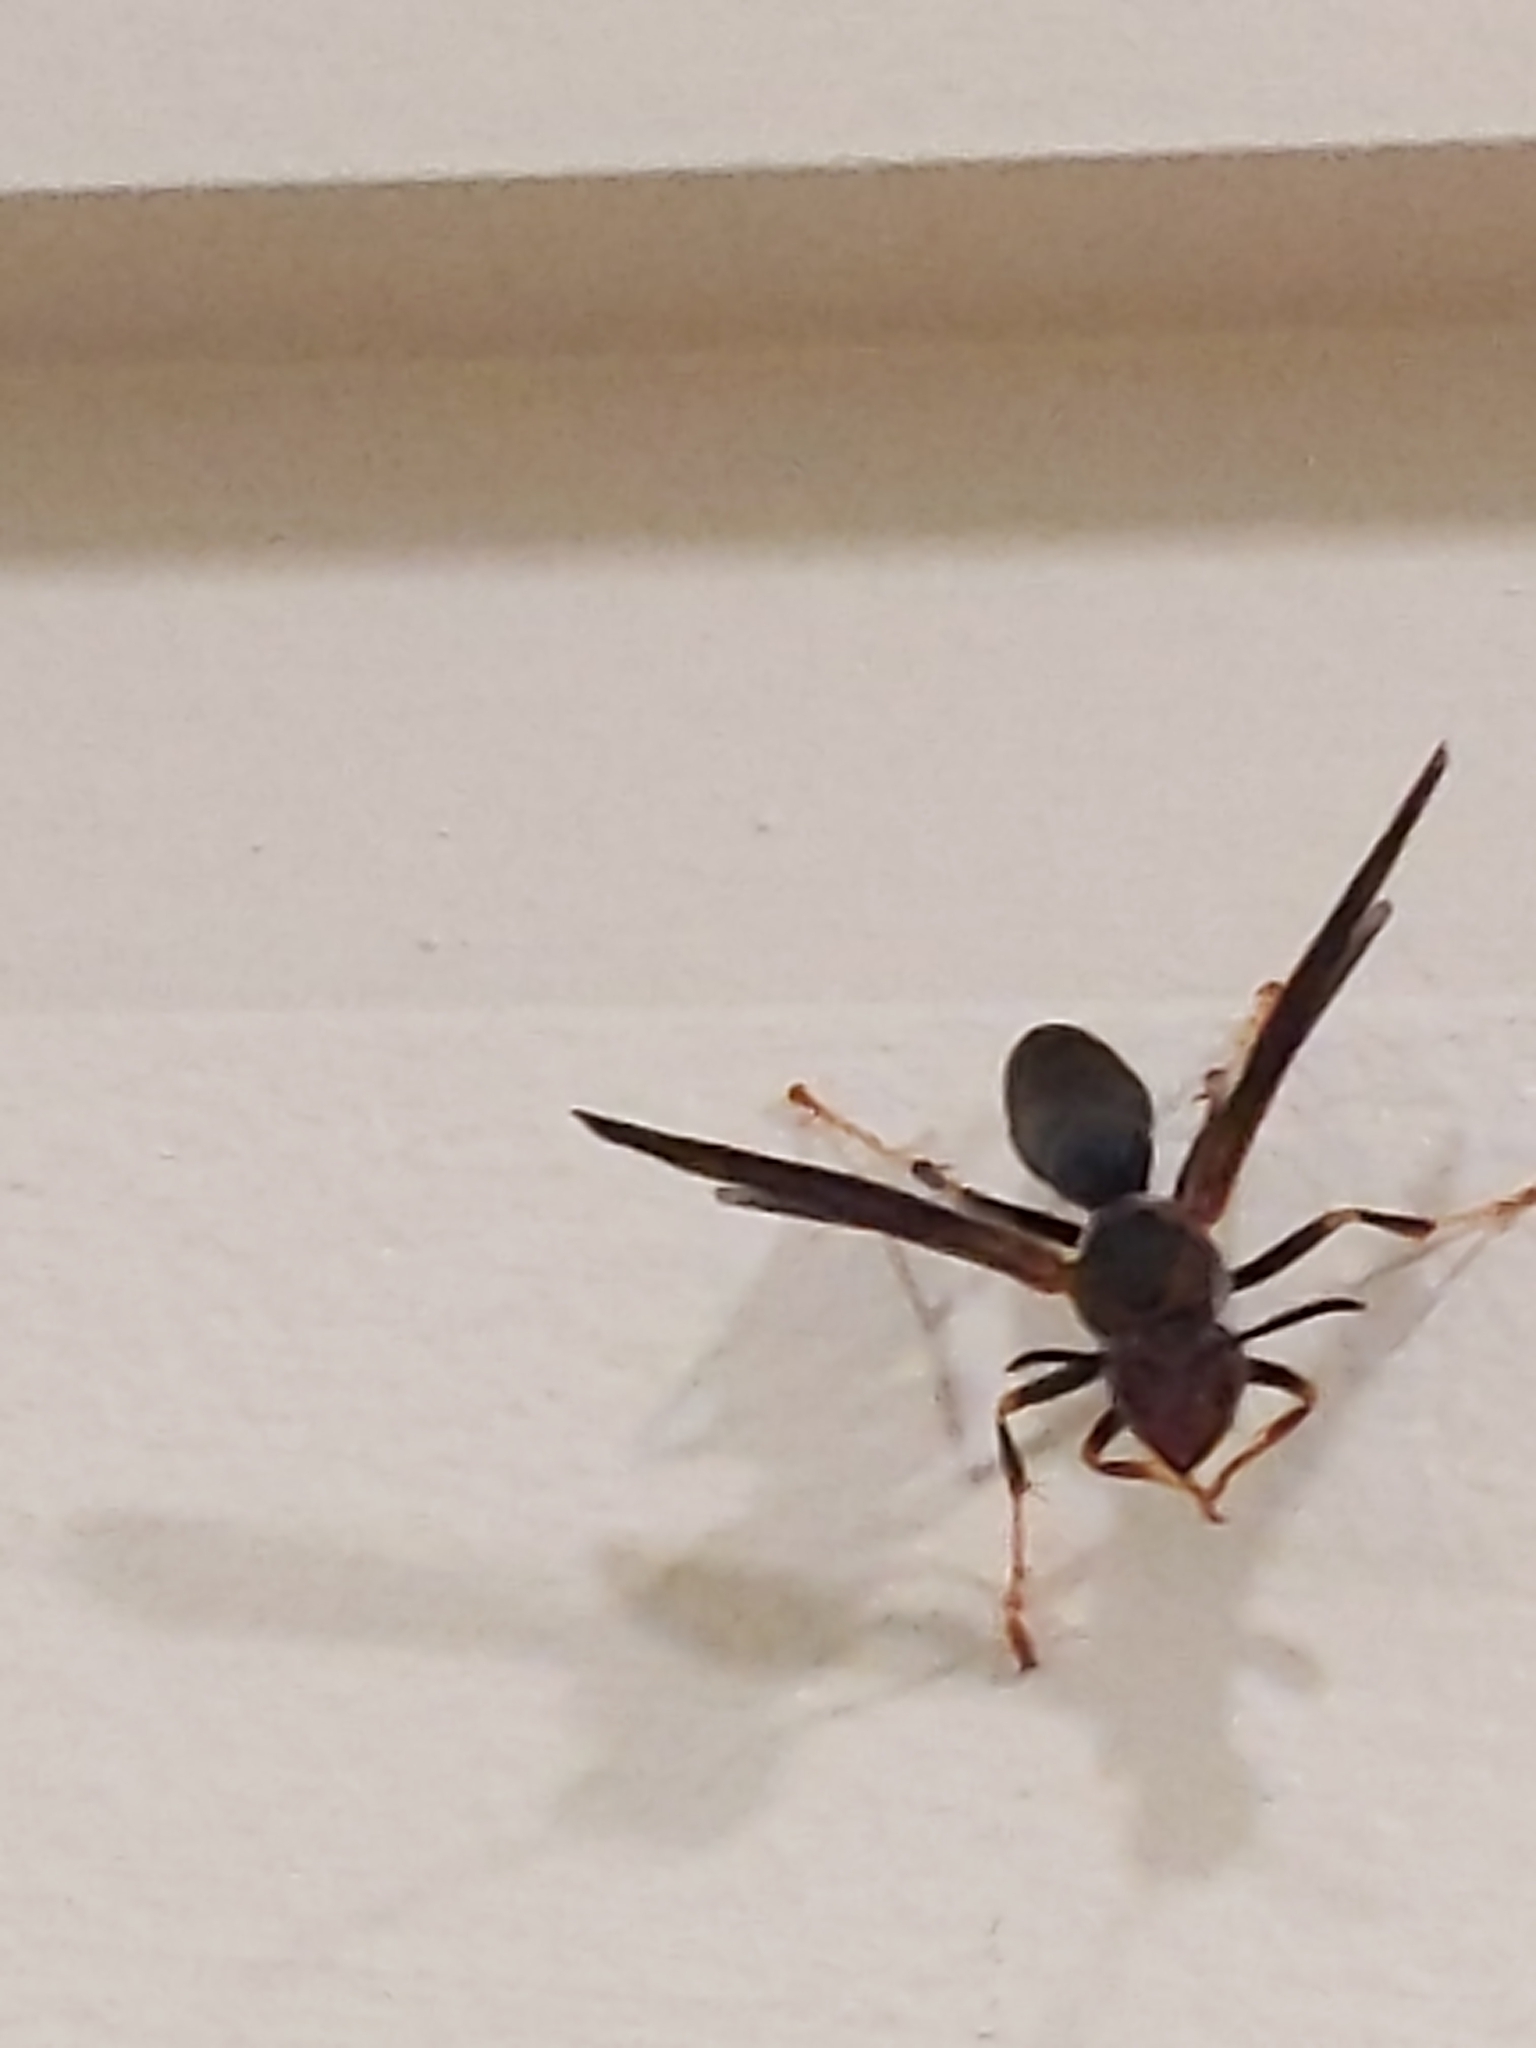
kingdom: Animalia
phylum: Arthropoda
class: Insecta
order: Hymenoptera
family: Eumenidae
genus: Polistes
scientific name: Polistes metricus
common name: Metric paper wasp
